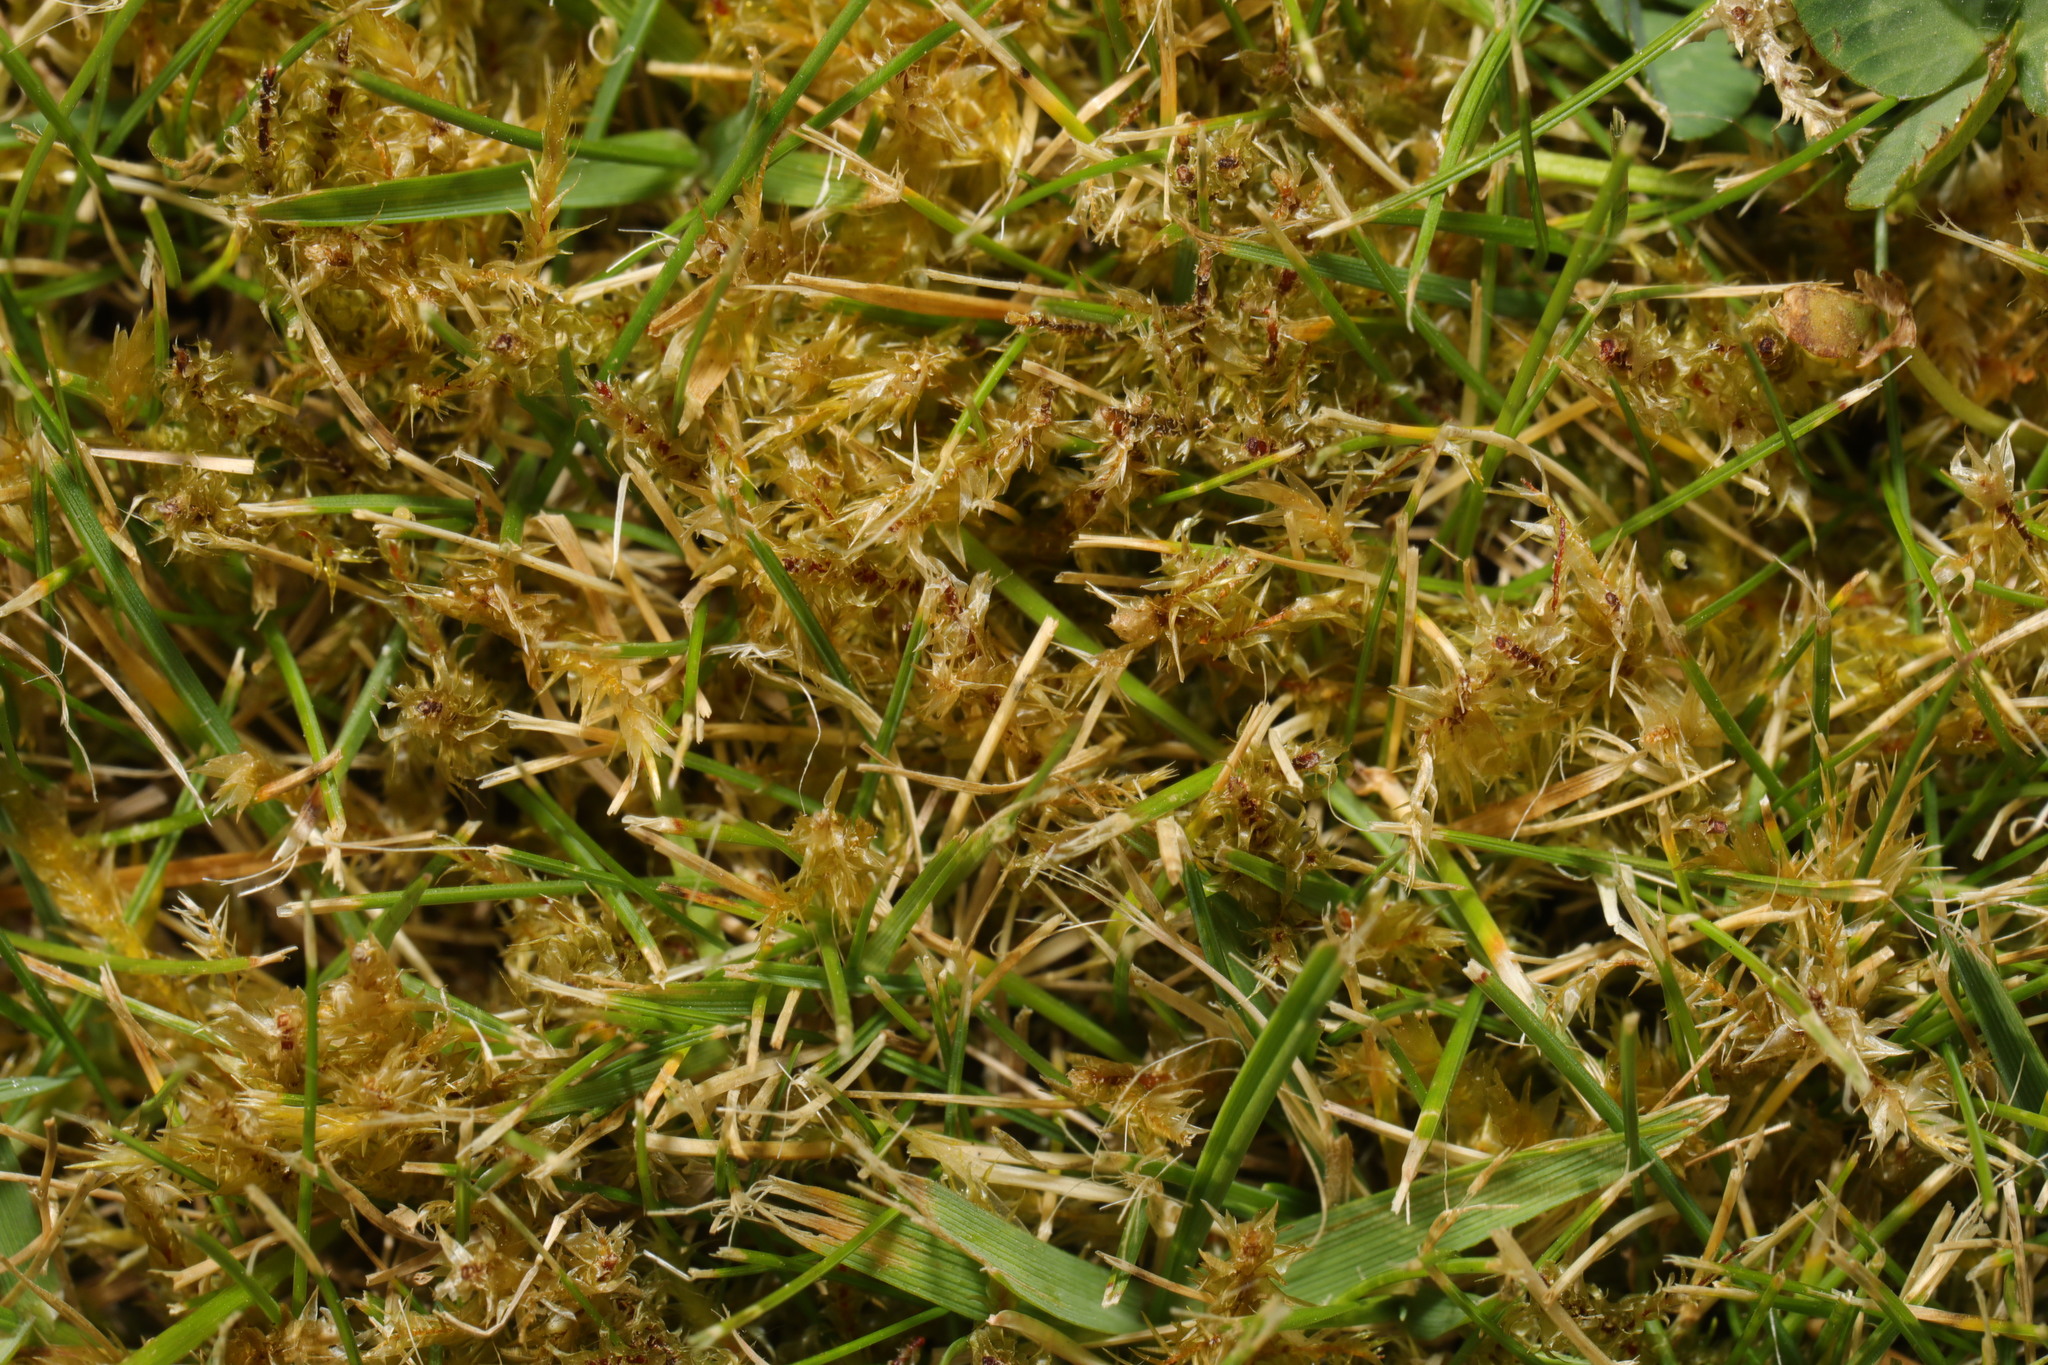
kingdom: Plantae
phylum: Bryophyta
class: Bryopsida
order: Hypnales
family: Hylocomiaceae
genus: Rhytidiadelphus
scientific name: Rhytidiadelphus squarrosus
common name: Springy turf-moss
